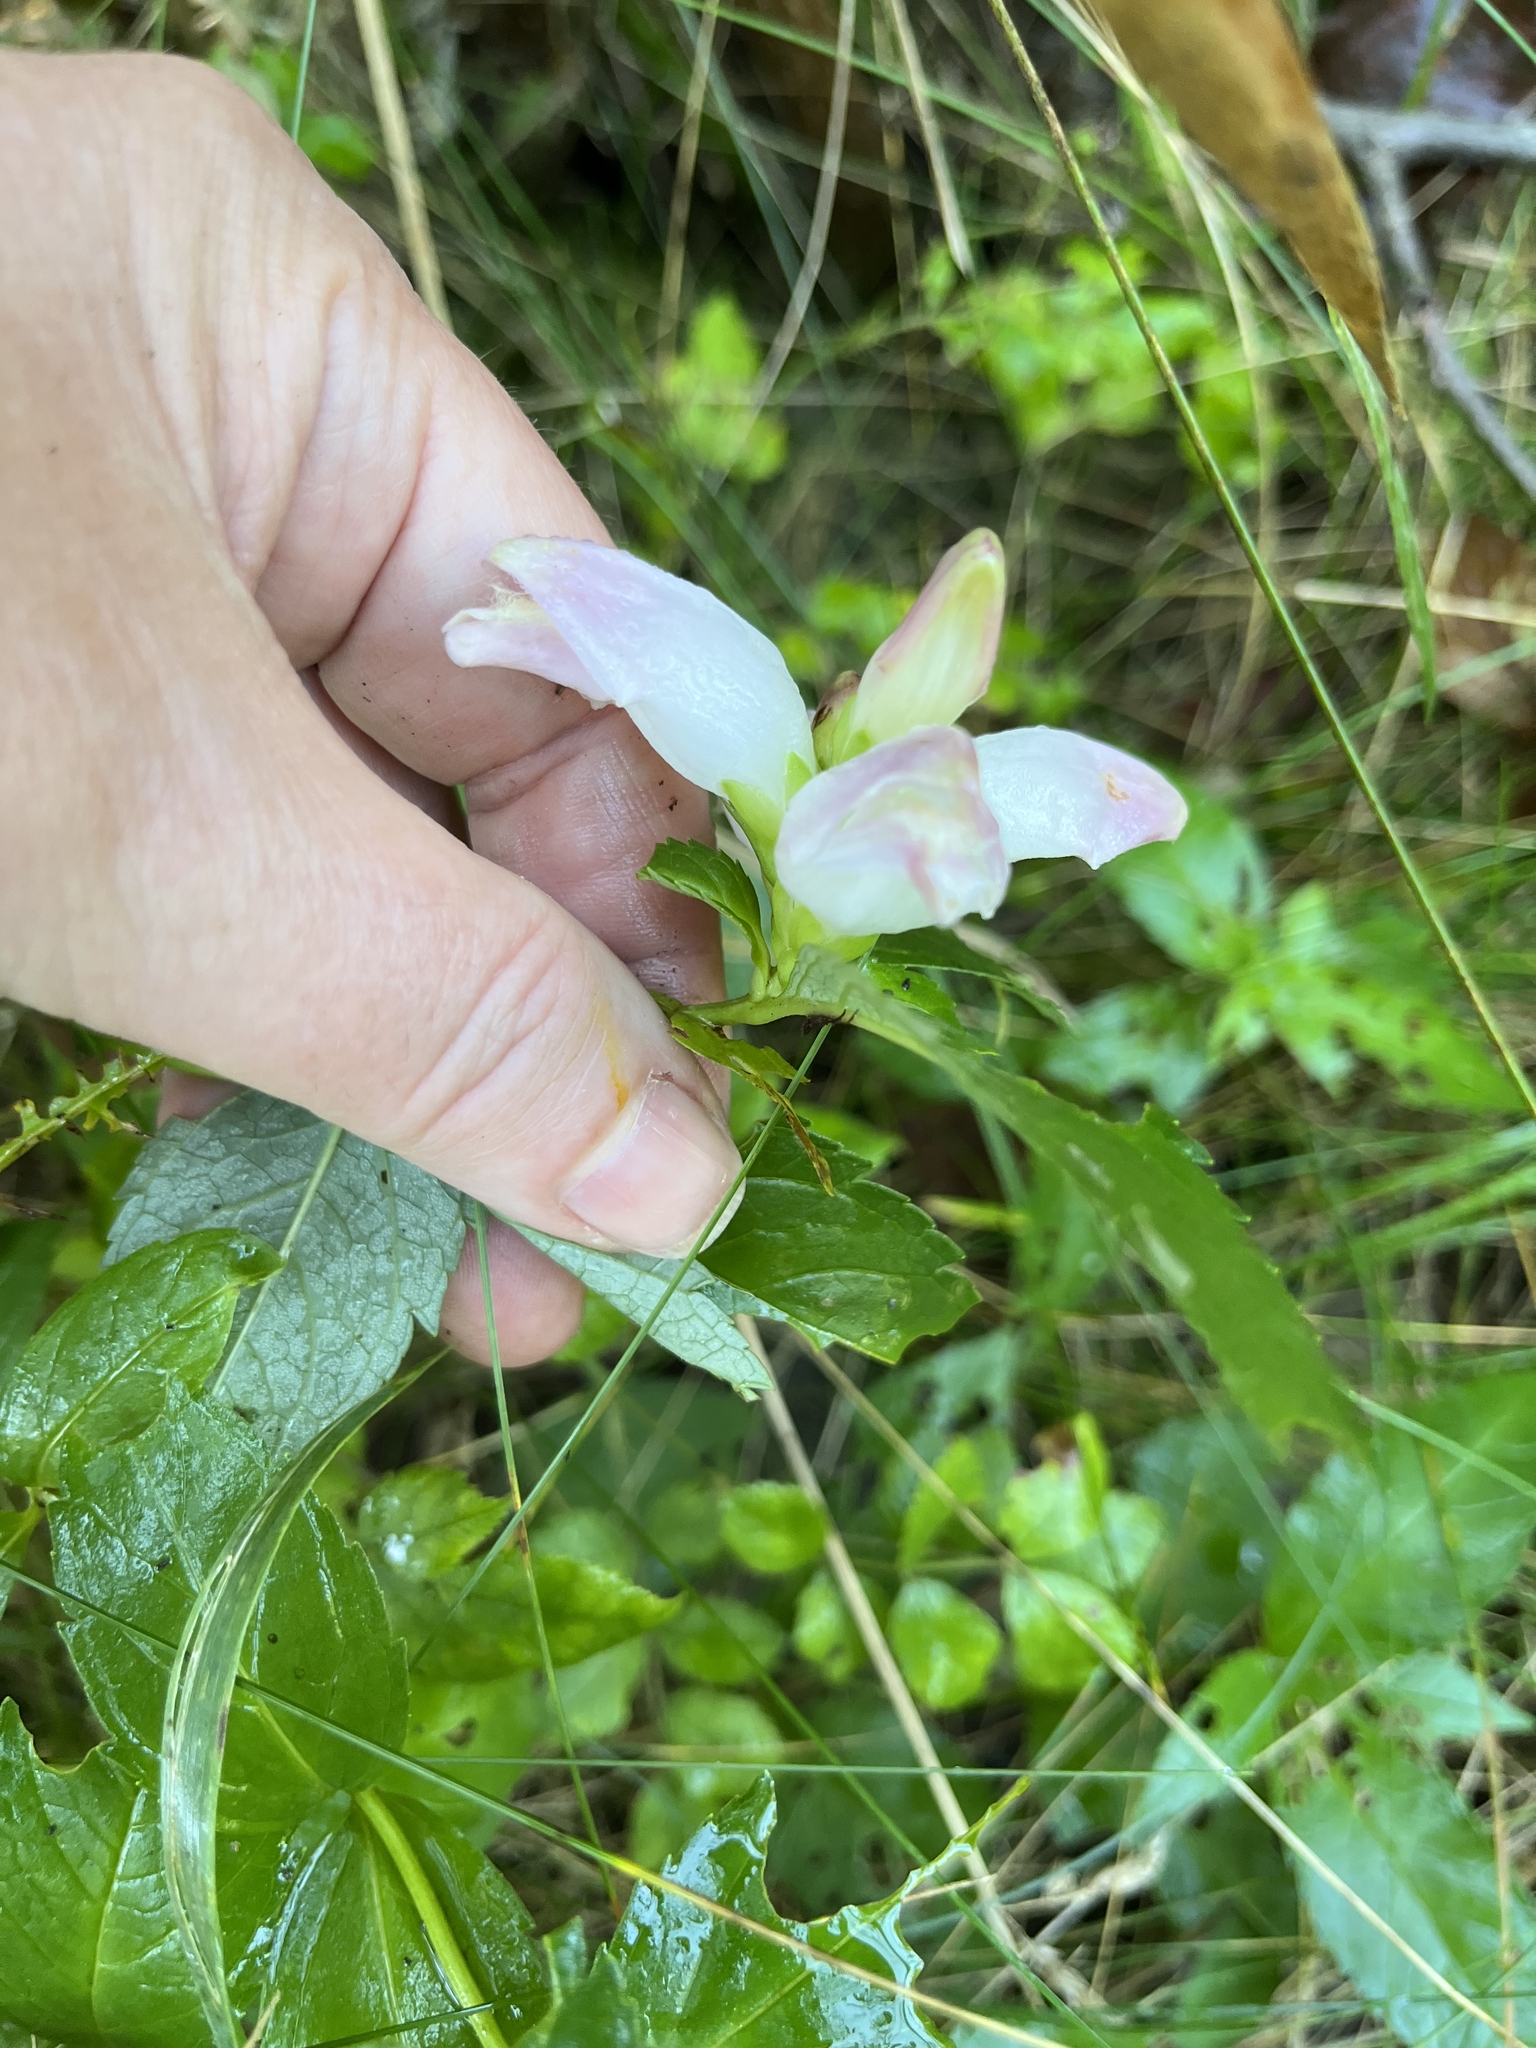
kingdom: Plantae
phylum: Tracheophyta
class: Magnoliopsida
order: Lamiales
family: Plantaginaceae
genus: Chelone
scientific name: Chelone glabra
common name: Snakehead
